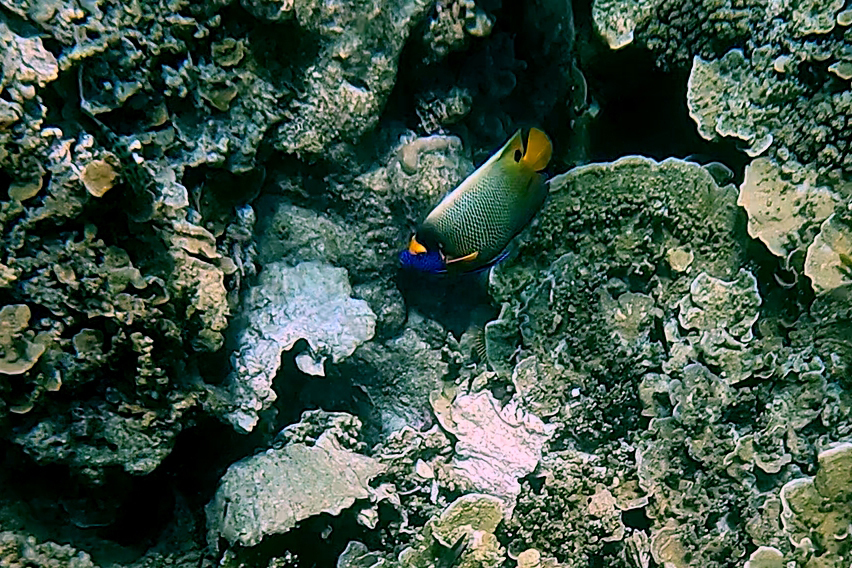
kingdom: Animalia
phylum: Chordata
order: Perciformes
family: Pomacanthidae
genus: Pomacanthus
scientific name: Pomacanthus xanthometopon
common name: Yellow-faced angelfish
